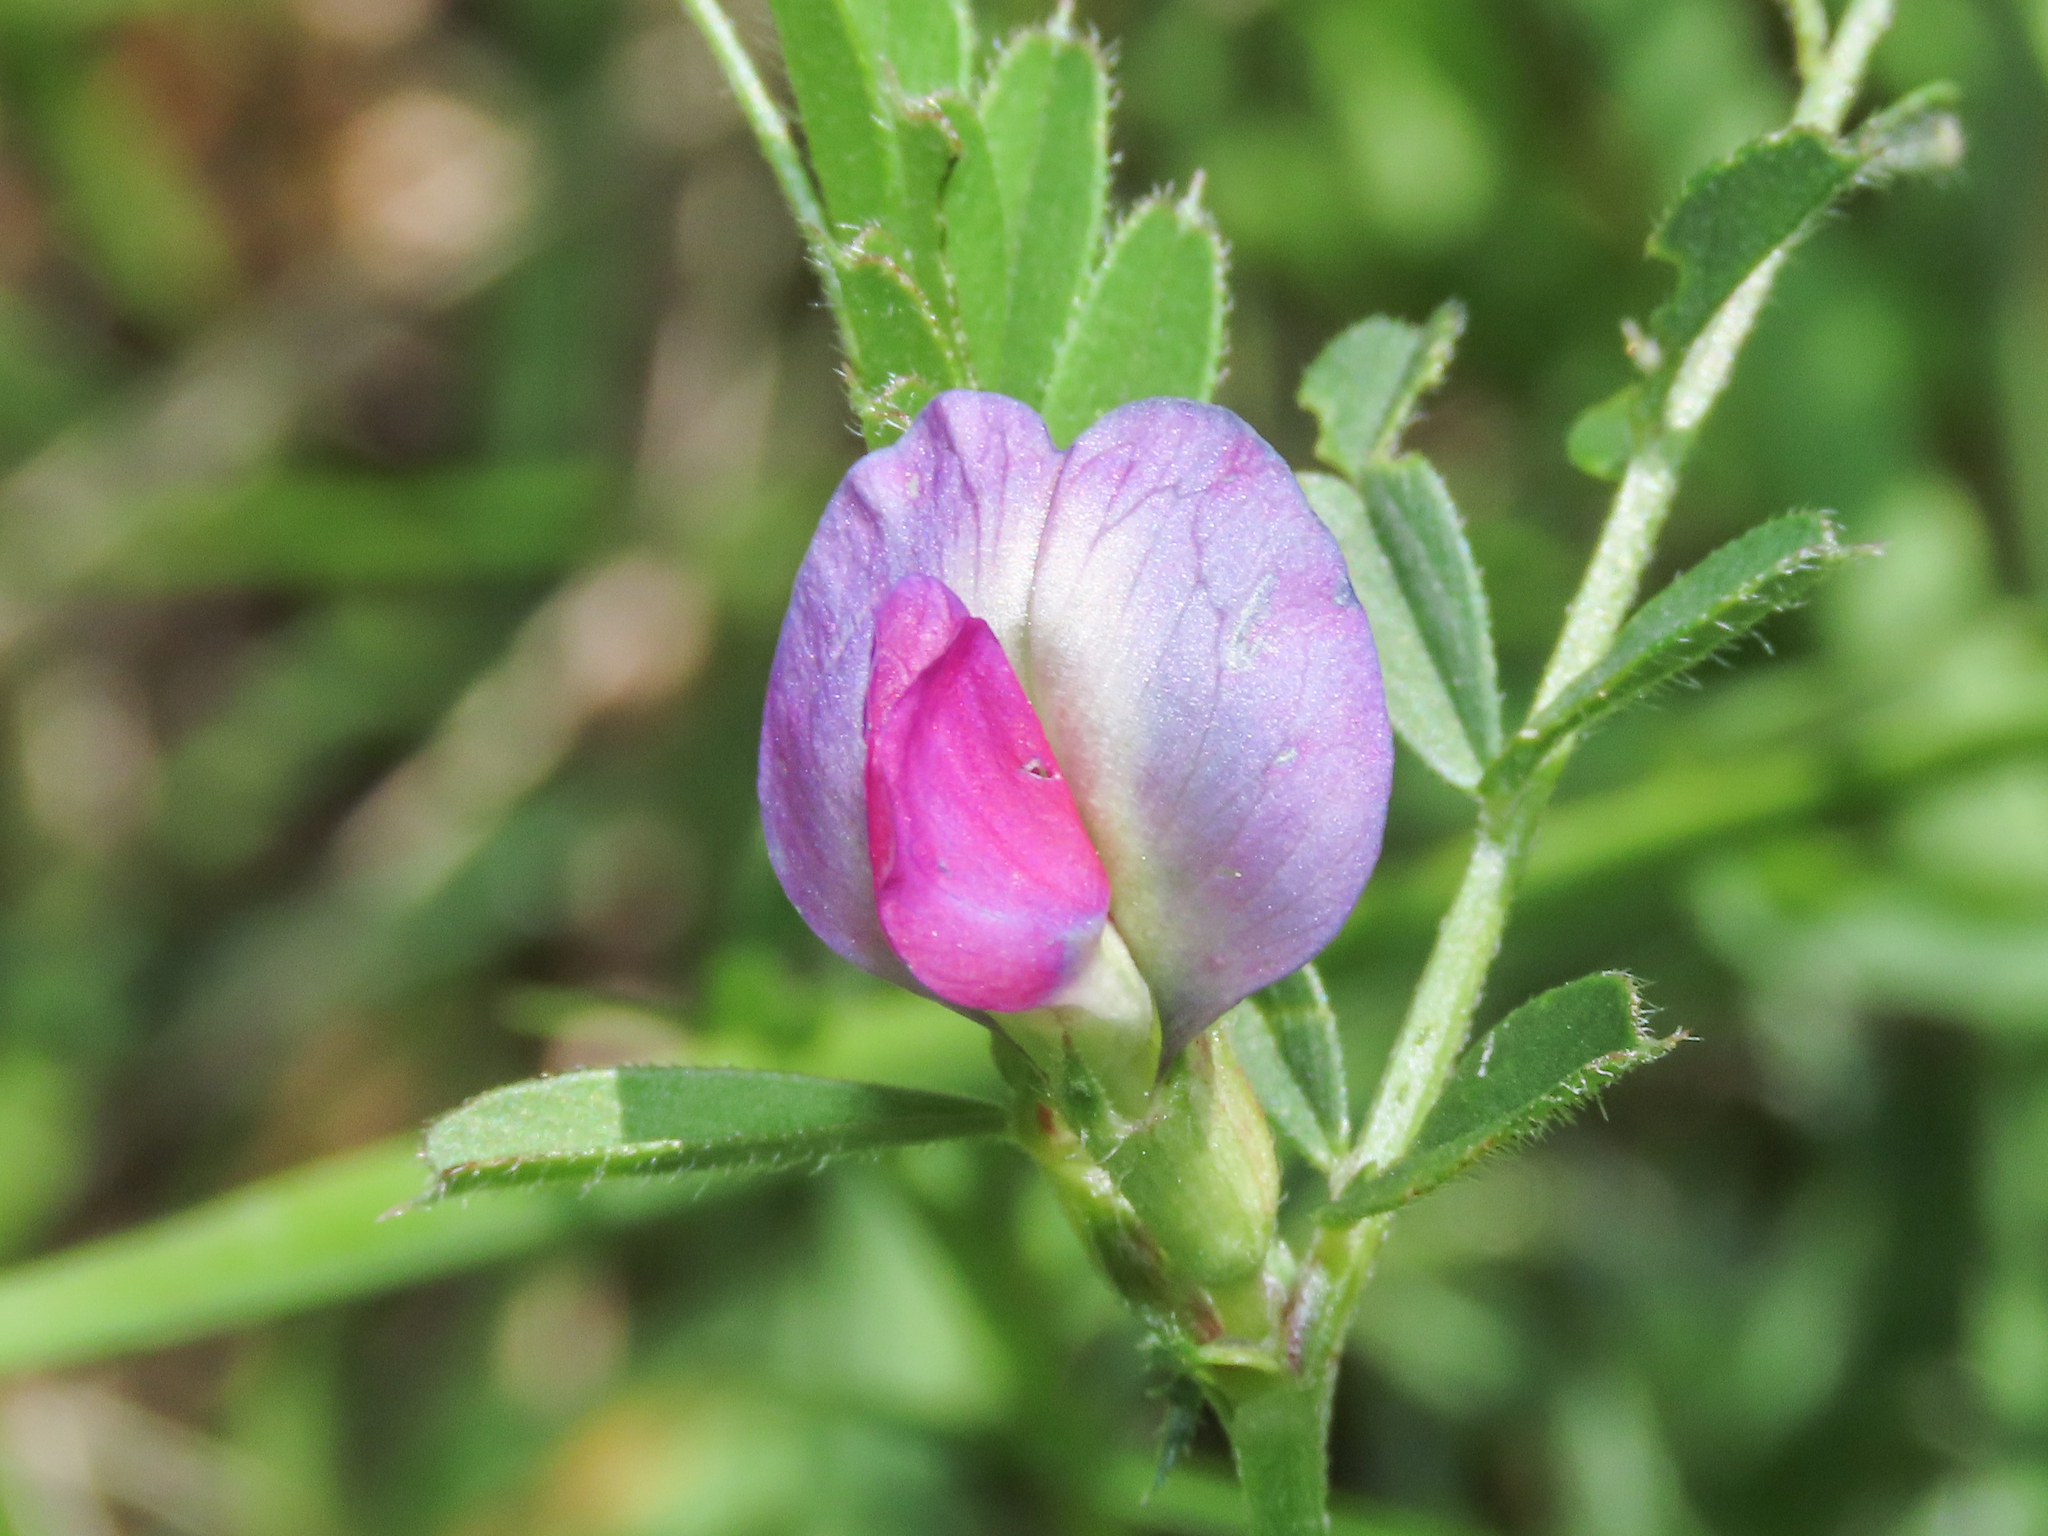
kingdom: Plantae
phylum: Tracheophyta
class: Magnoliopsida
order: Fabales
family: Fabaceae
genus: Vicia
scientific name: Vicia sativa
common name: Garden vetch
